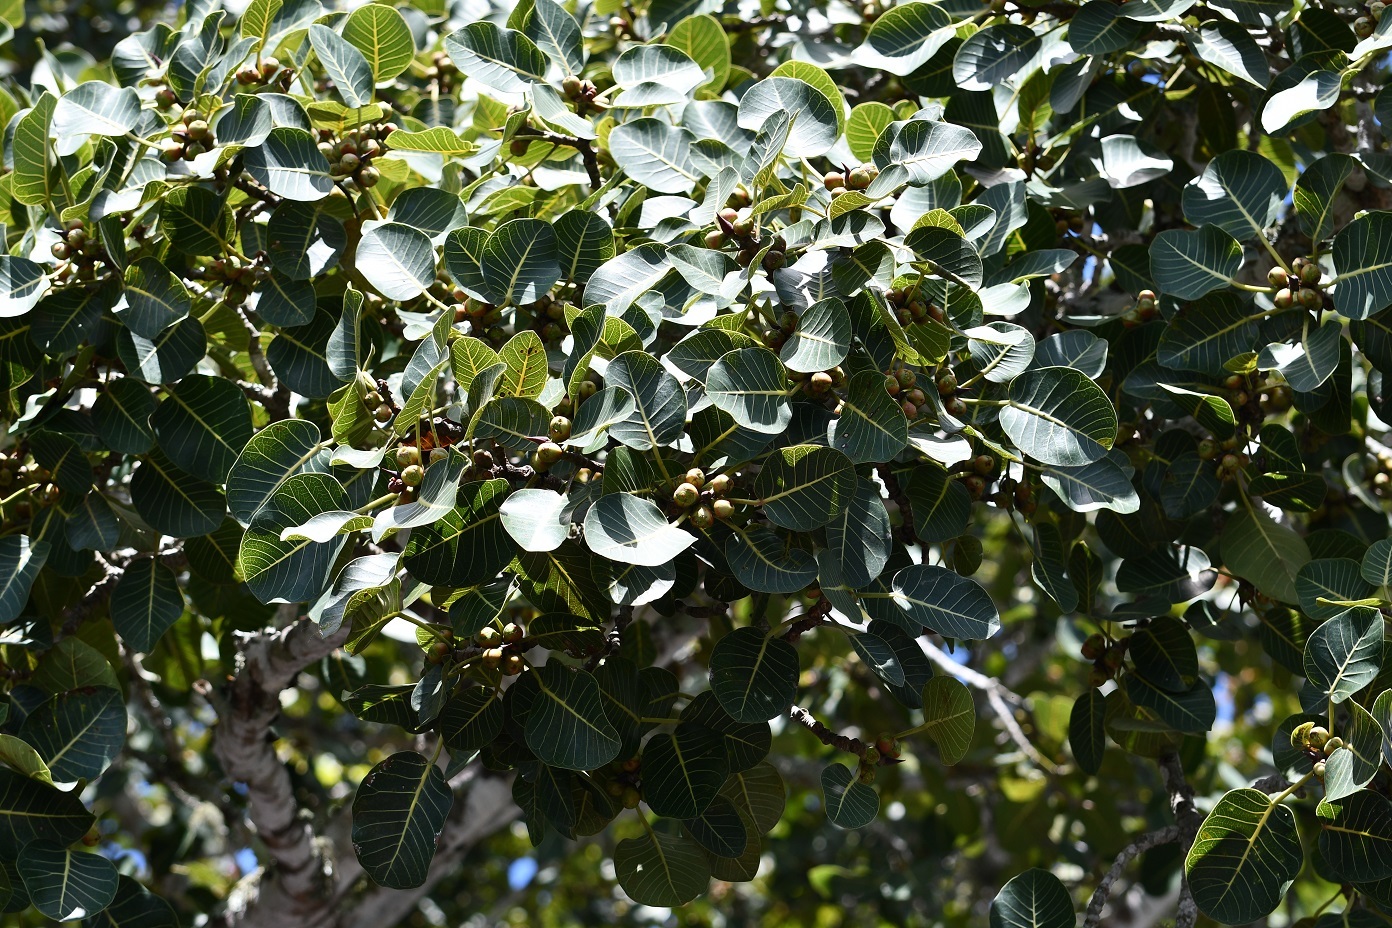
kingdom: Plantae
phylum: Tracheophyta
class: Magnoliopsida
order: Rosales
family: Moraceae
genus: Ficus
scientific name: Ficus aurea
